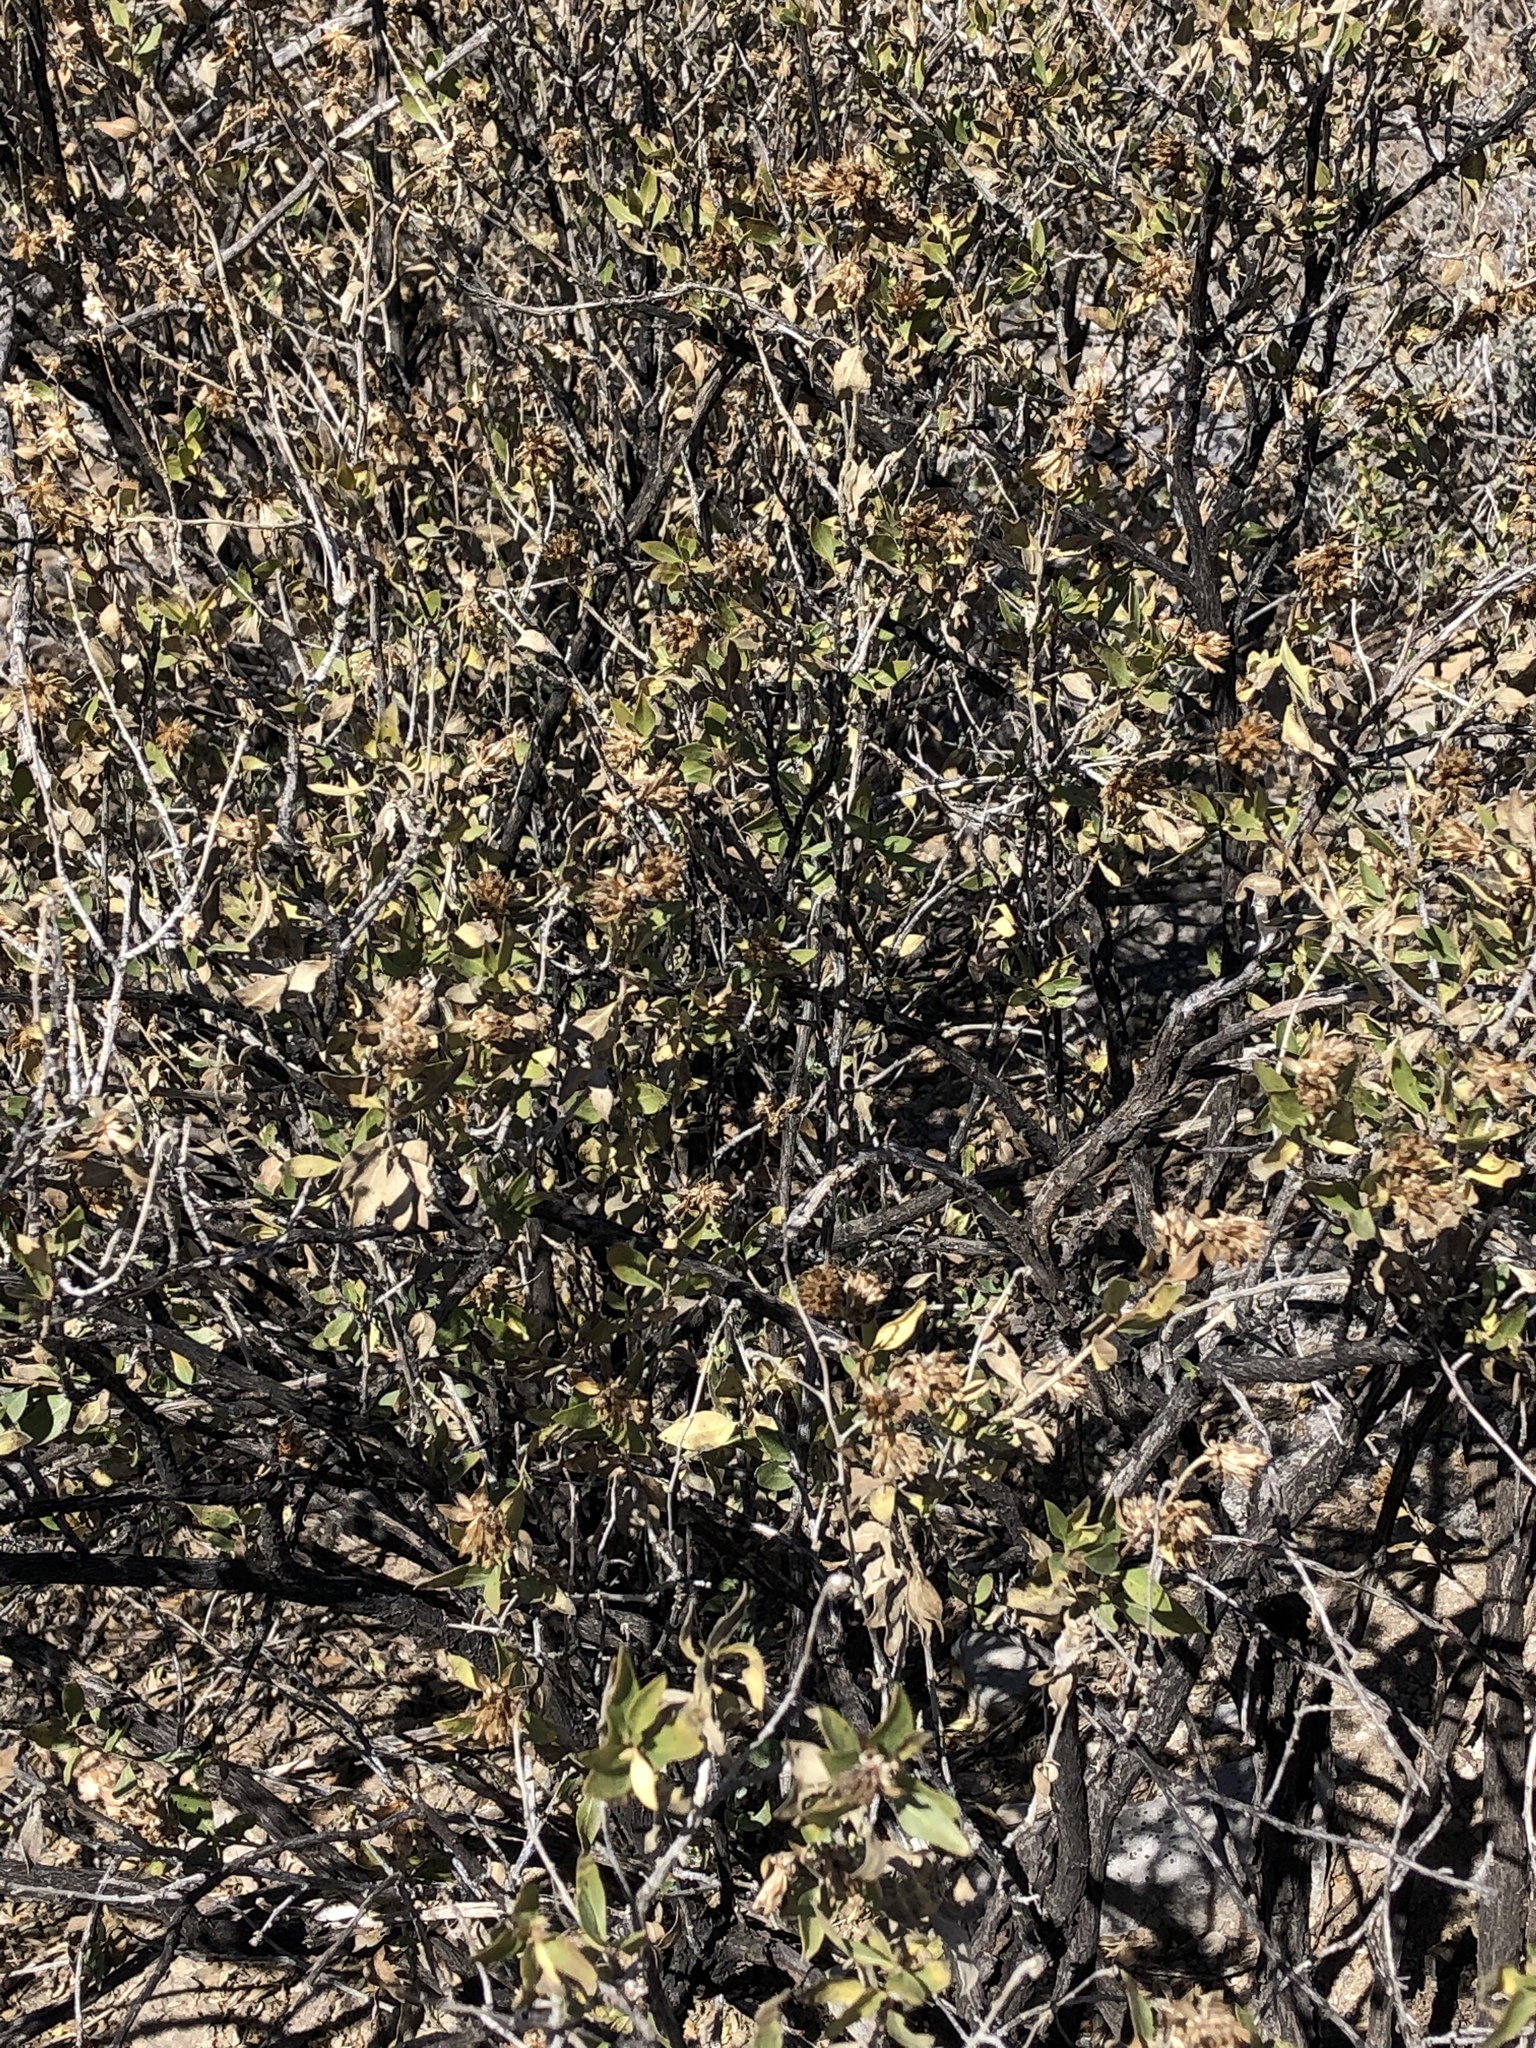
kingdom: Plantae
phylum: Tracheophyta
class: Magnoliopsida
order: Asterales
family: Asteraceae
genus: Flourensia
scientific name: Flourensia cernua
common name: Varnishbush
